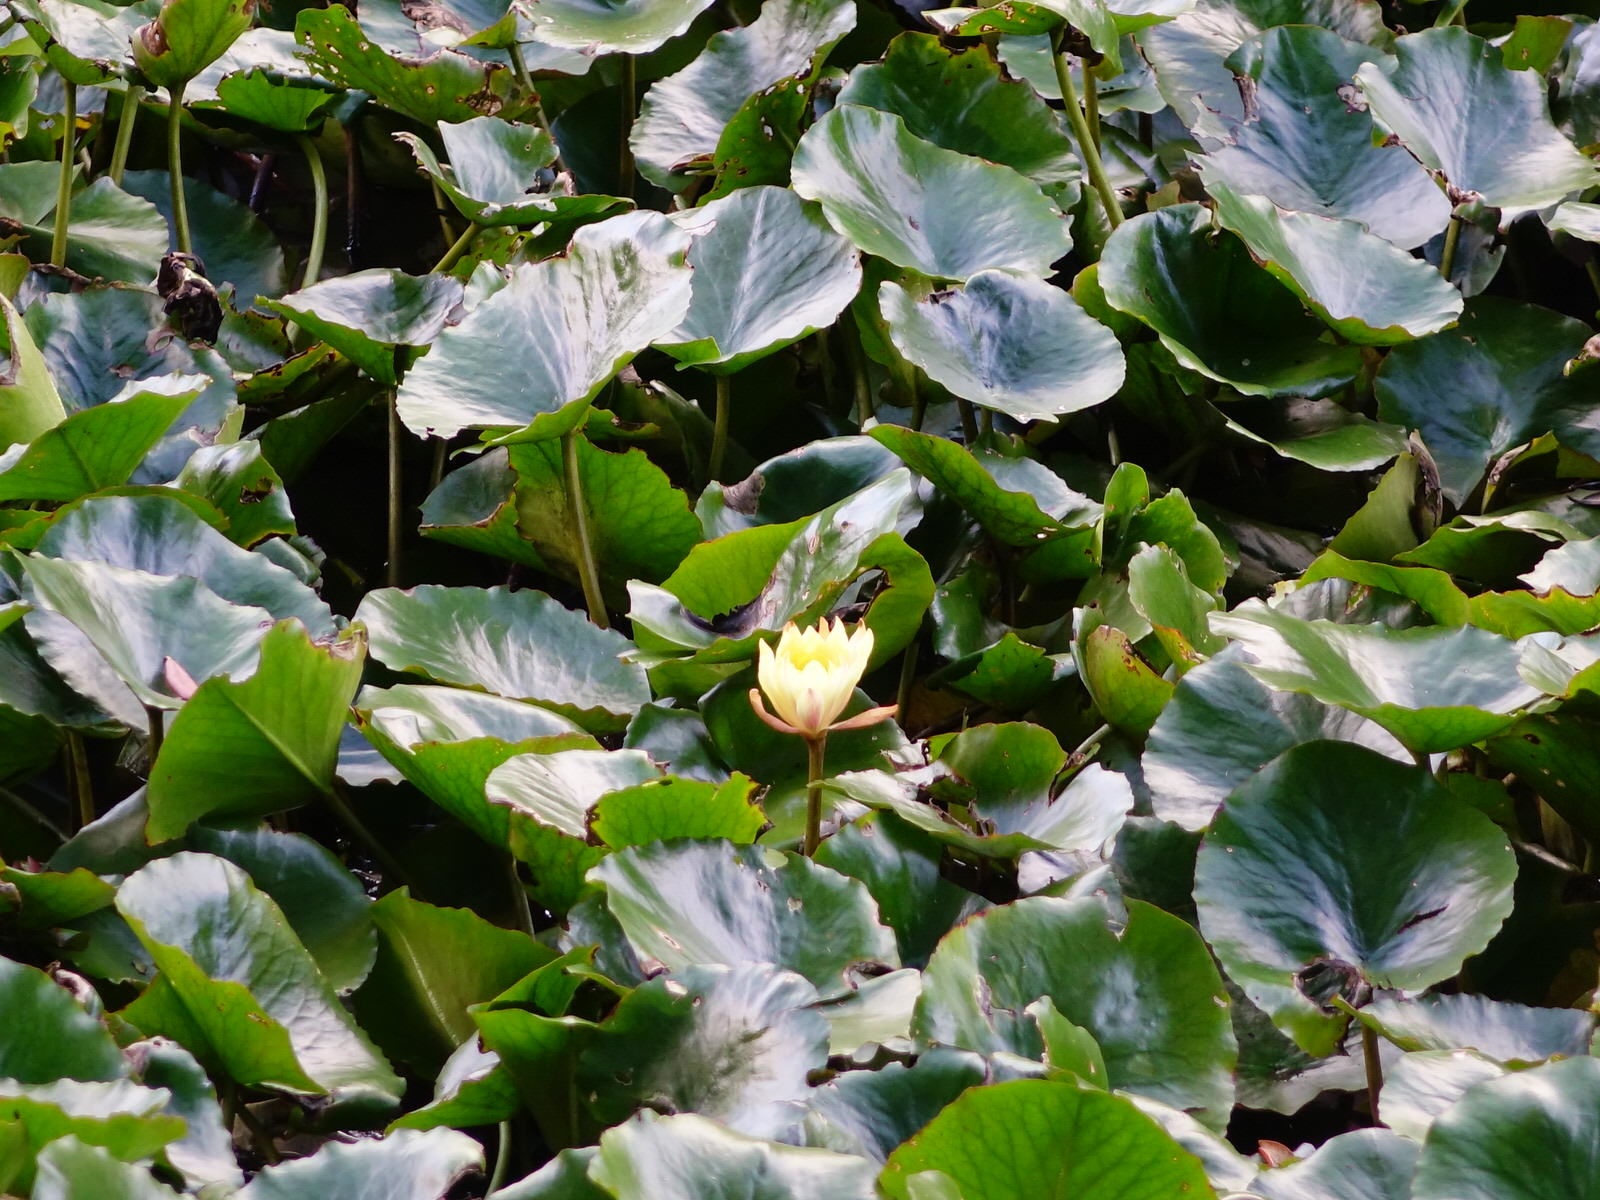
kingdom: Plantae
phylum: Tracheophyta
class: Magnoliopsida
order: Nymphaeales
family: Nymphaeaceae
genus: Nymphaea
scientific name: Nymphaea mexicana
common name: Banana water-lily
